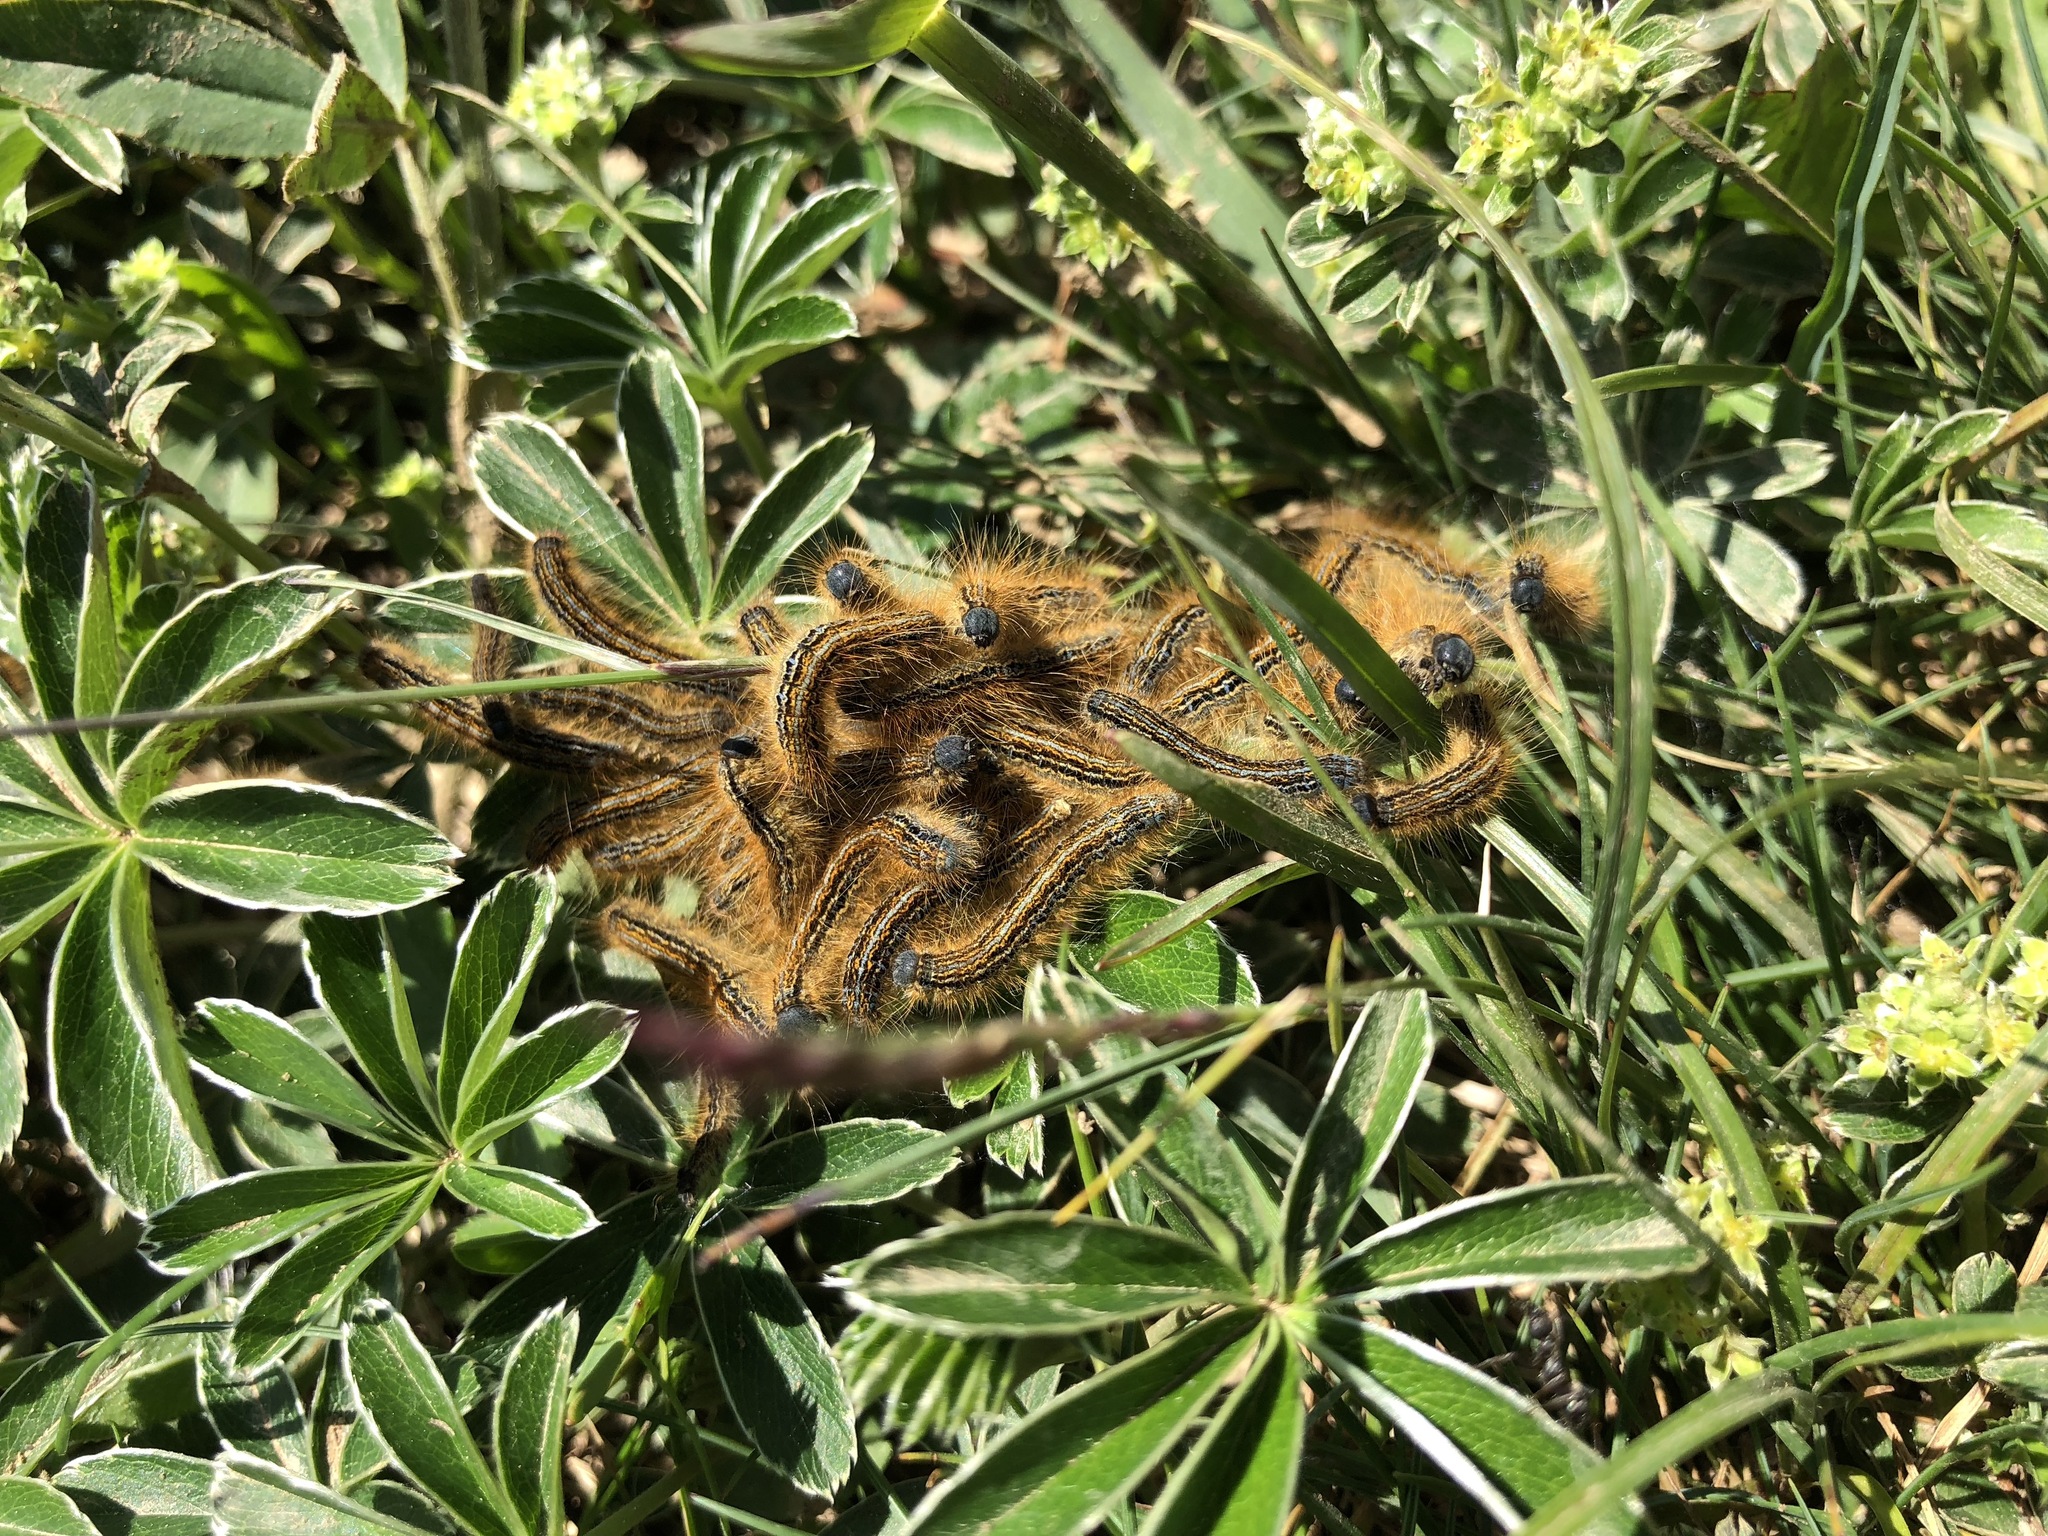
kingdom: Animalia
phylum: Arthropoda
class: Insecta
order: Lepidoptera
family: Lasiocampidae
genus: Malacosoma
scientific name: Malacosoma castrense
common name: Ground lackey
